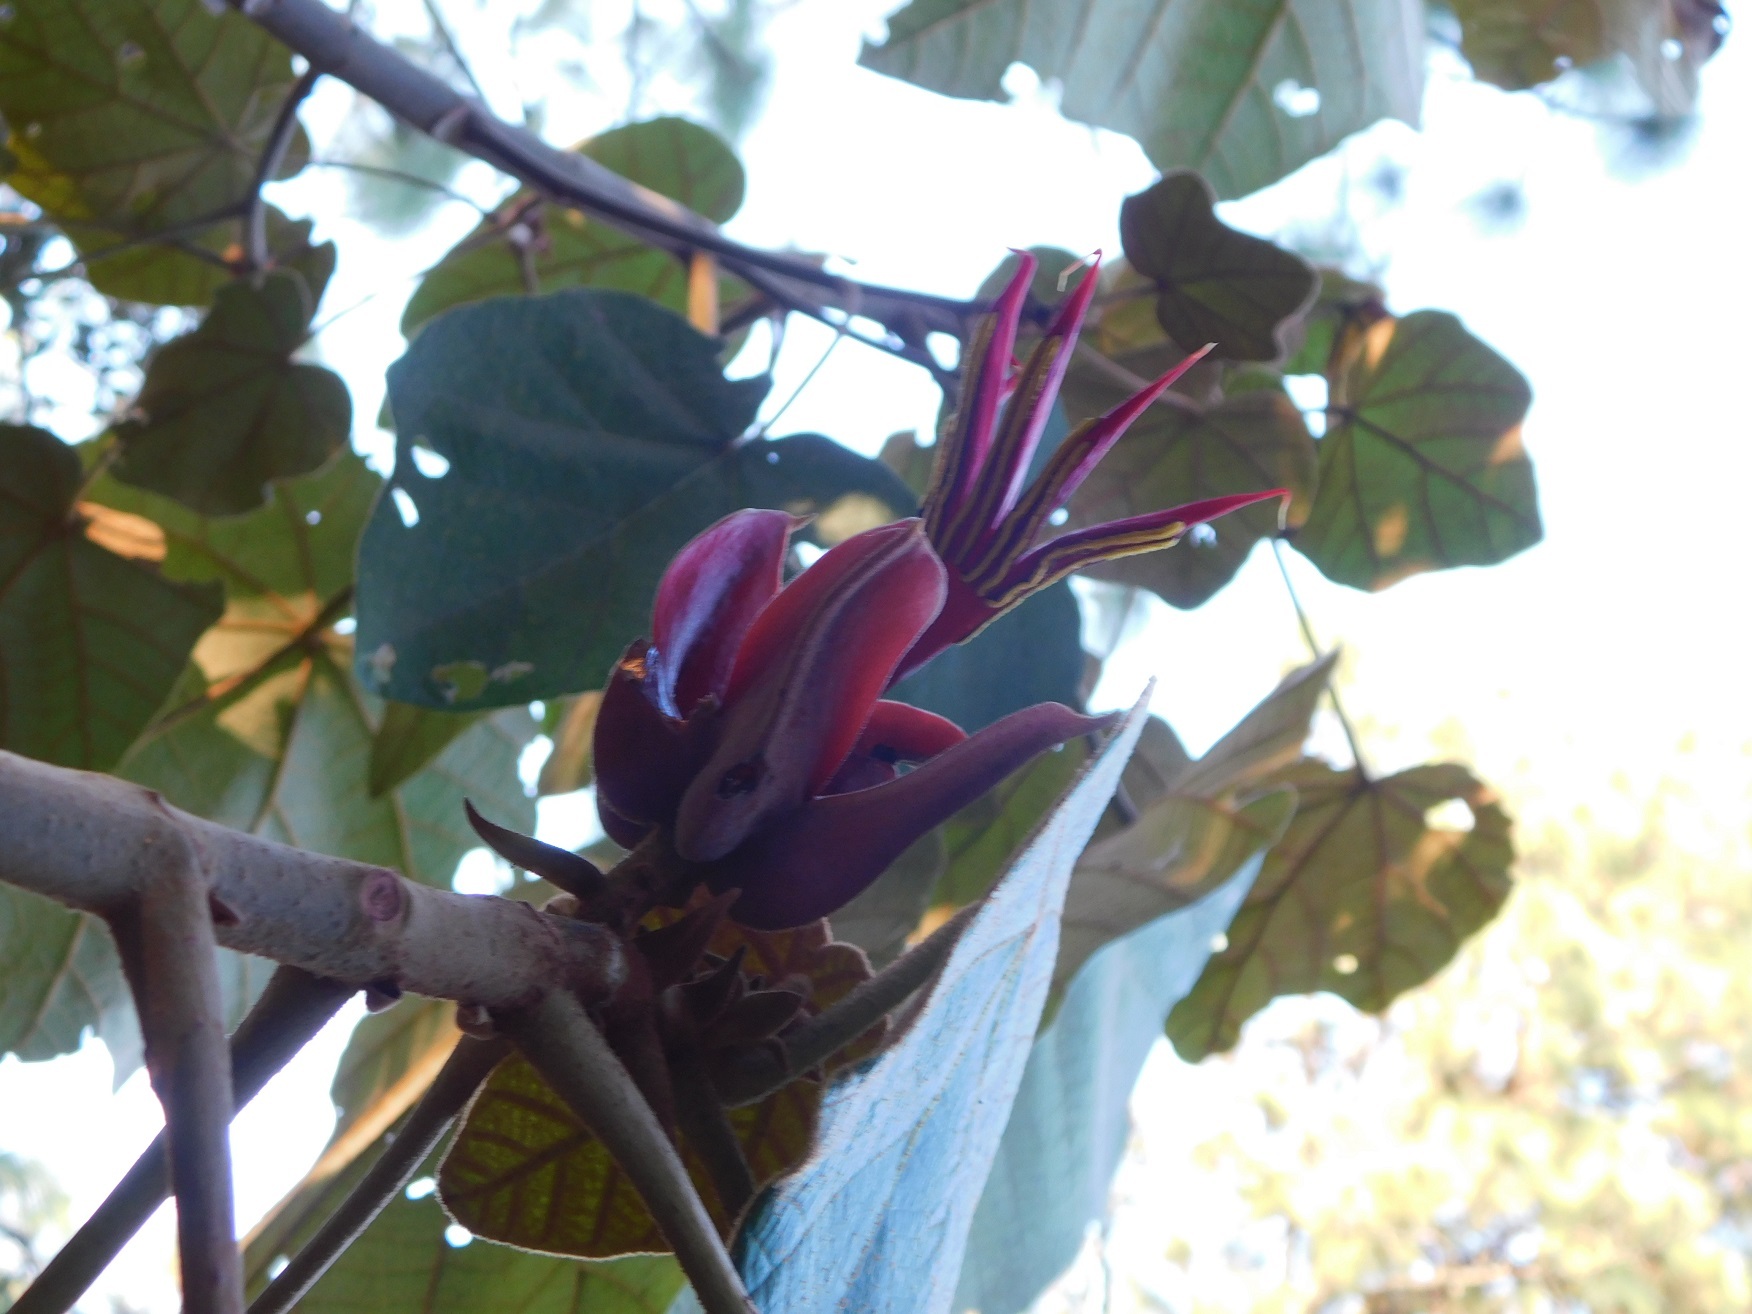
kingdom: Plantae
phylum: Tracheophyta
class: Magnoliopsida
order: Malvales
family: Malvaceae
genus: Chiranthodendron
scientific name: Chiranthodendron pentadactylon
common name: Mexican-hat-plant
